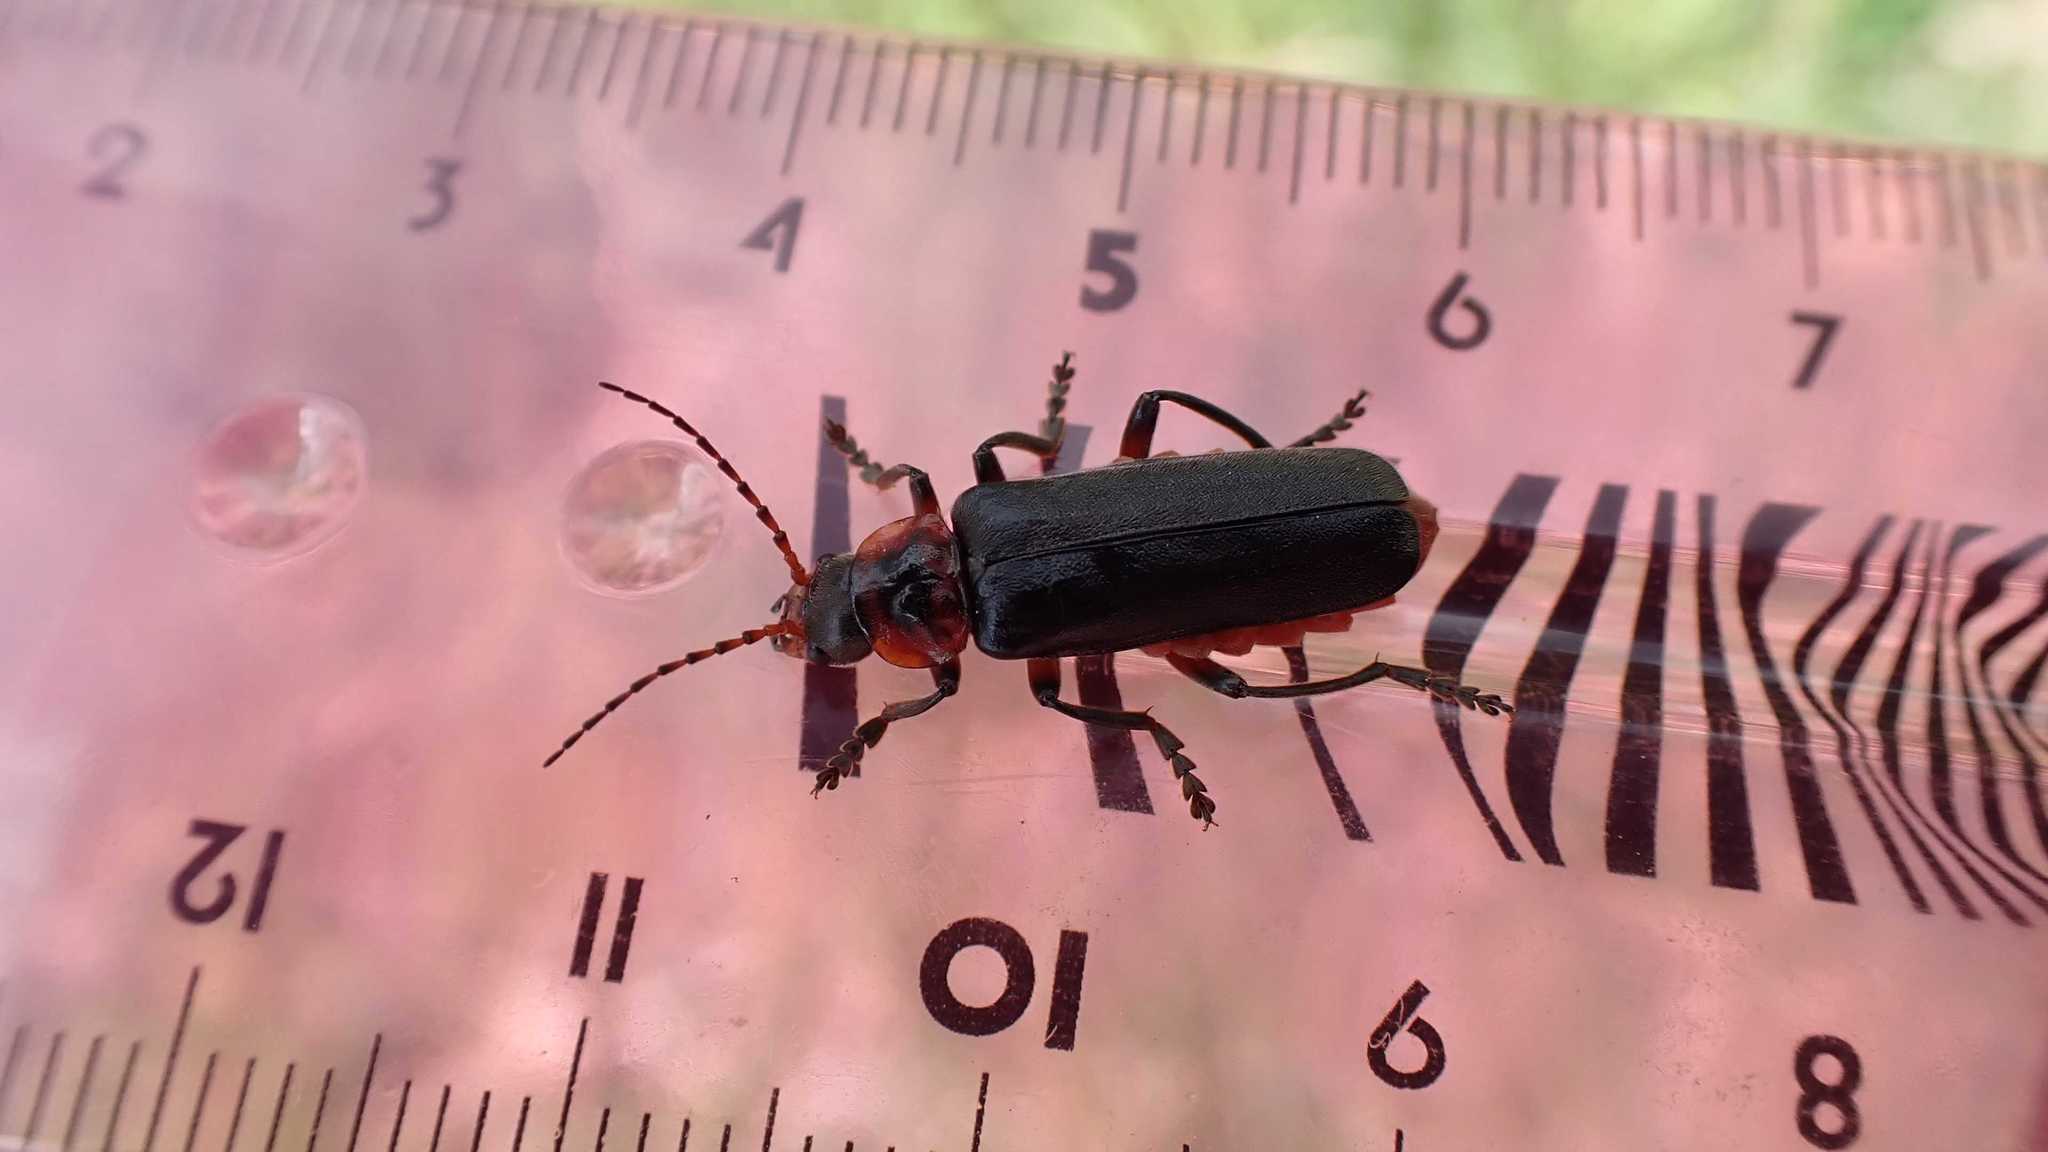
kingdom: Animalia
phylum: Arthropoda
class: Insecta
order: Coleoptera
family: Cantharidae
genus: Cantharis
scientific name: Cantharis rustica
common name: Soldier beetle
